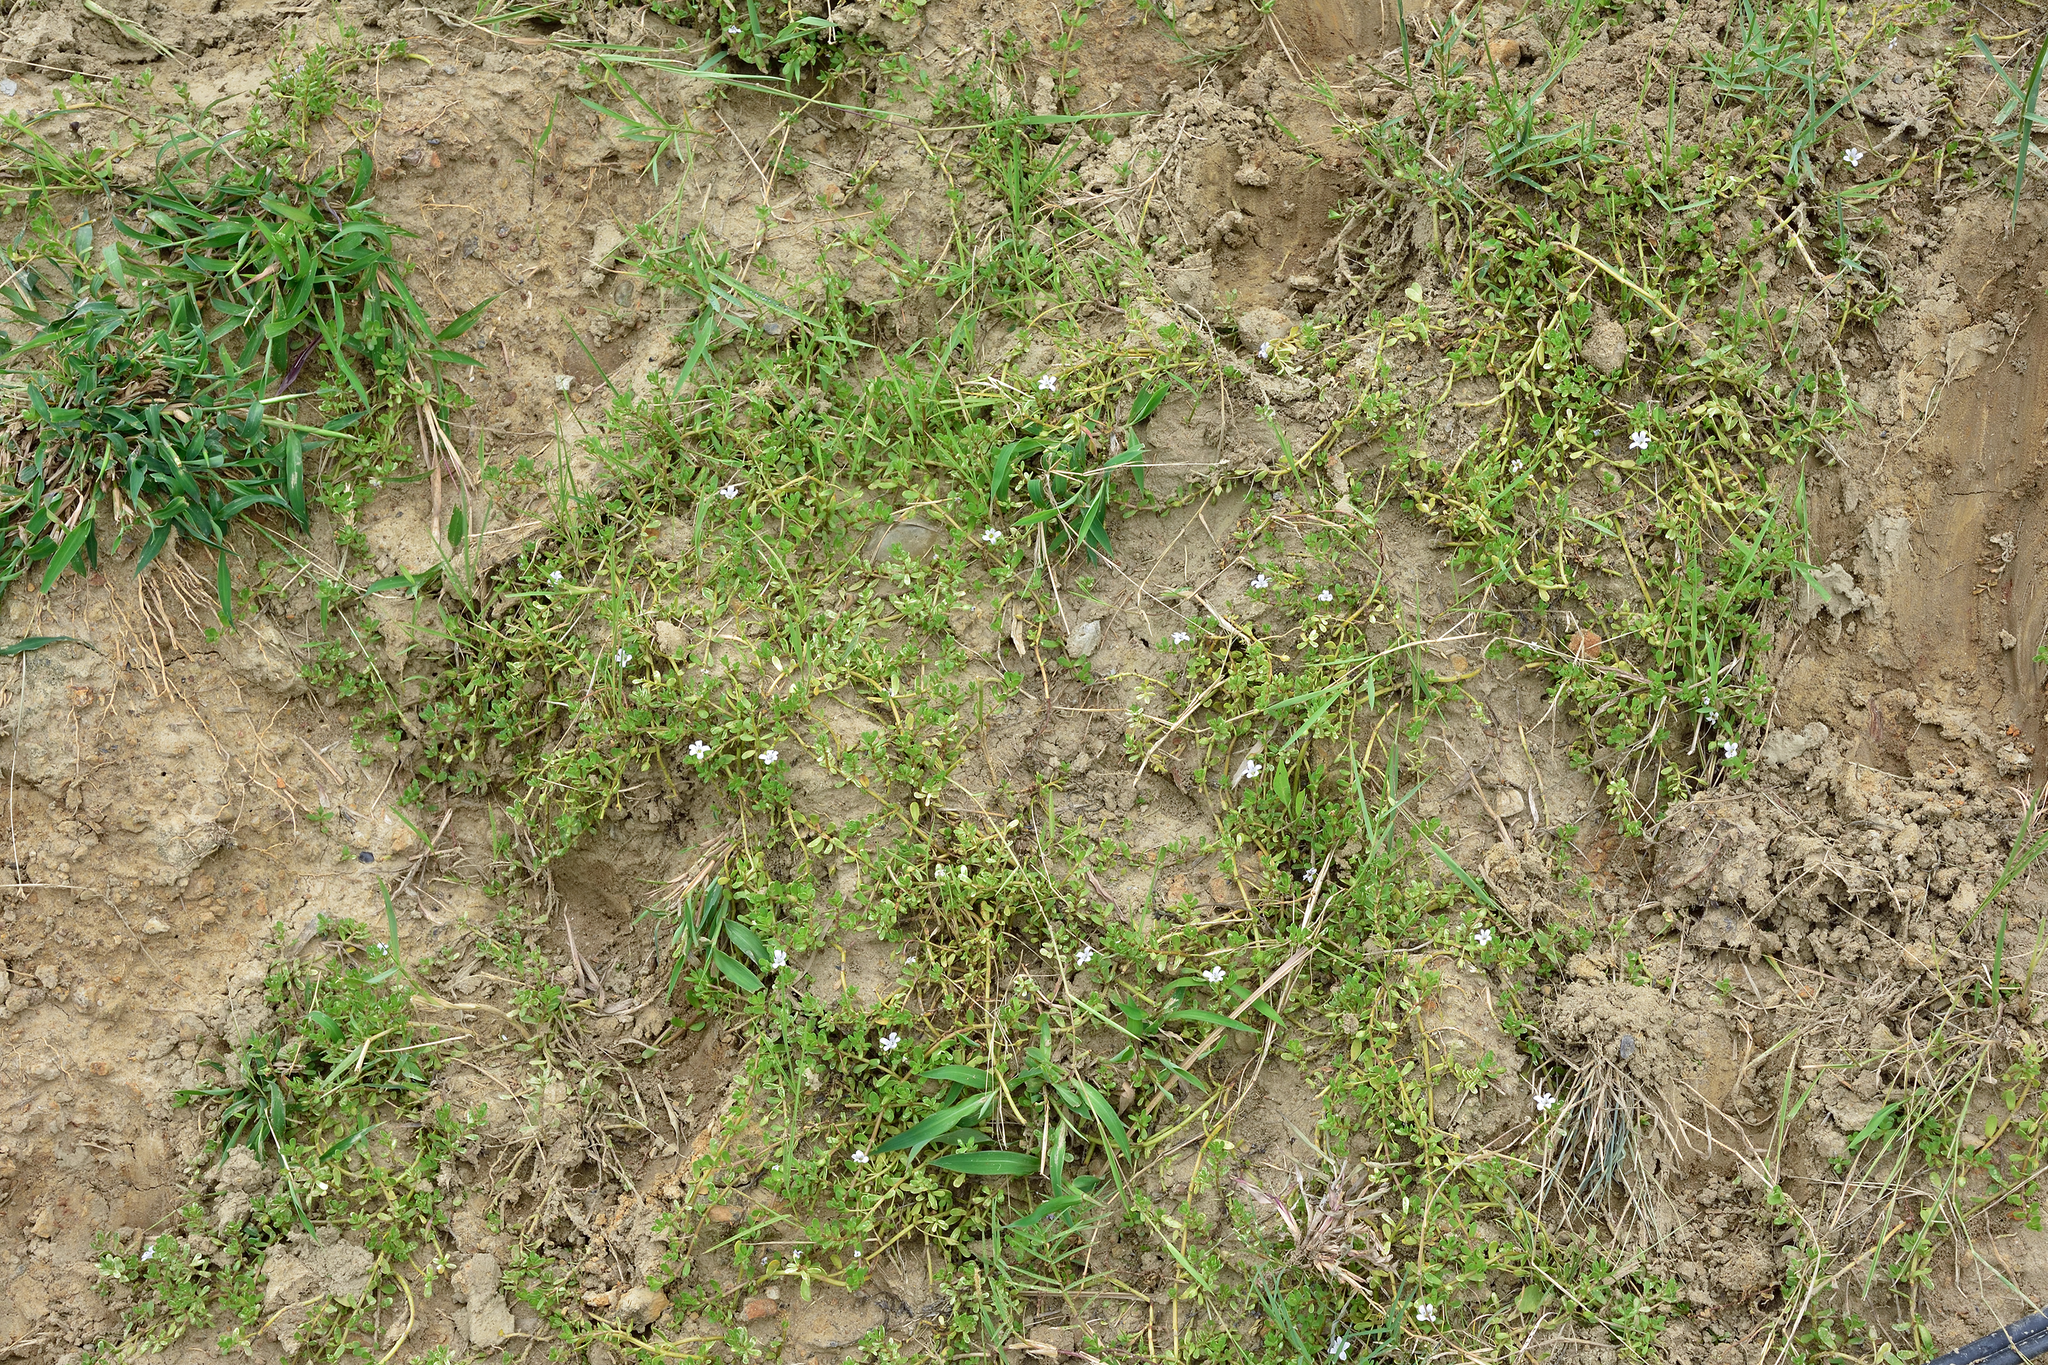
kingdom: Plantae
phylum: Tracheophyta
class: Magnoliopsida
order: Lamiales
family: Plantaginaceae
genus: Bacopa
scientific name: Bacopa monnieri
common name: Indian-pennywort
